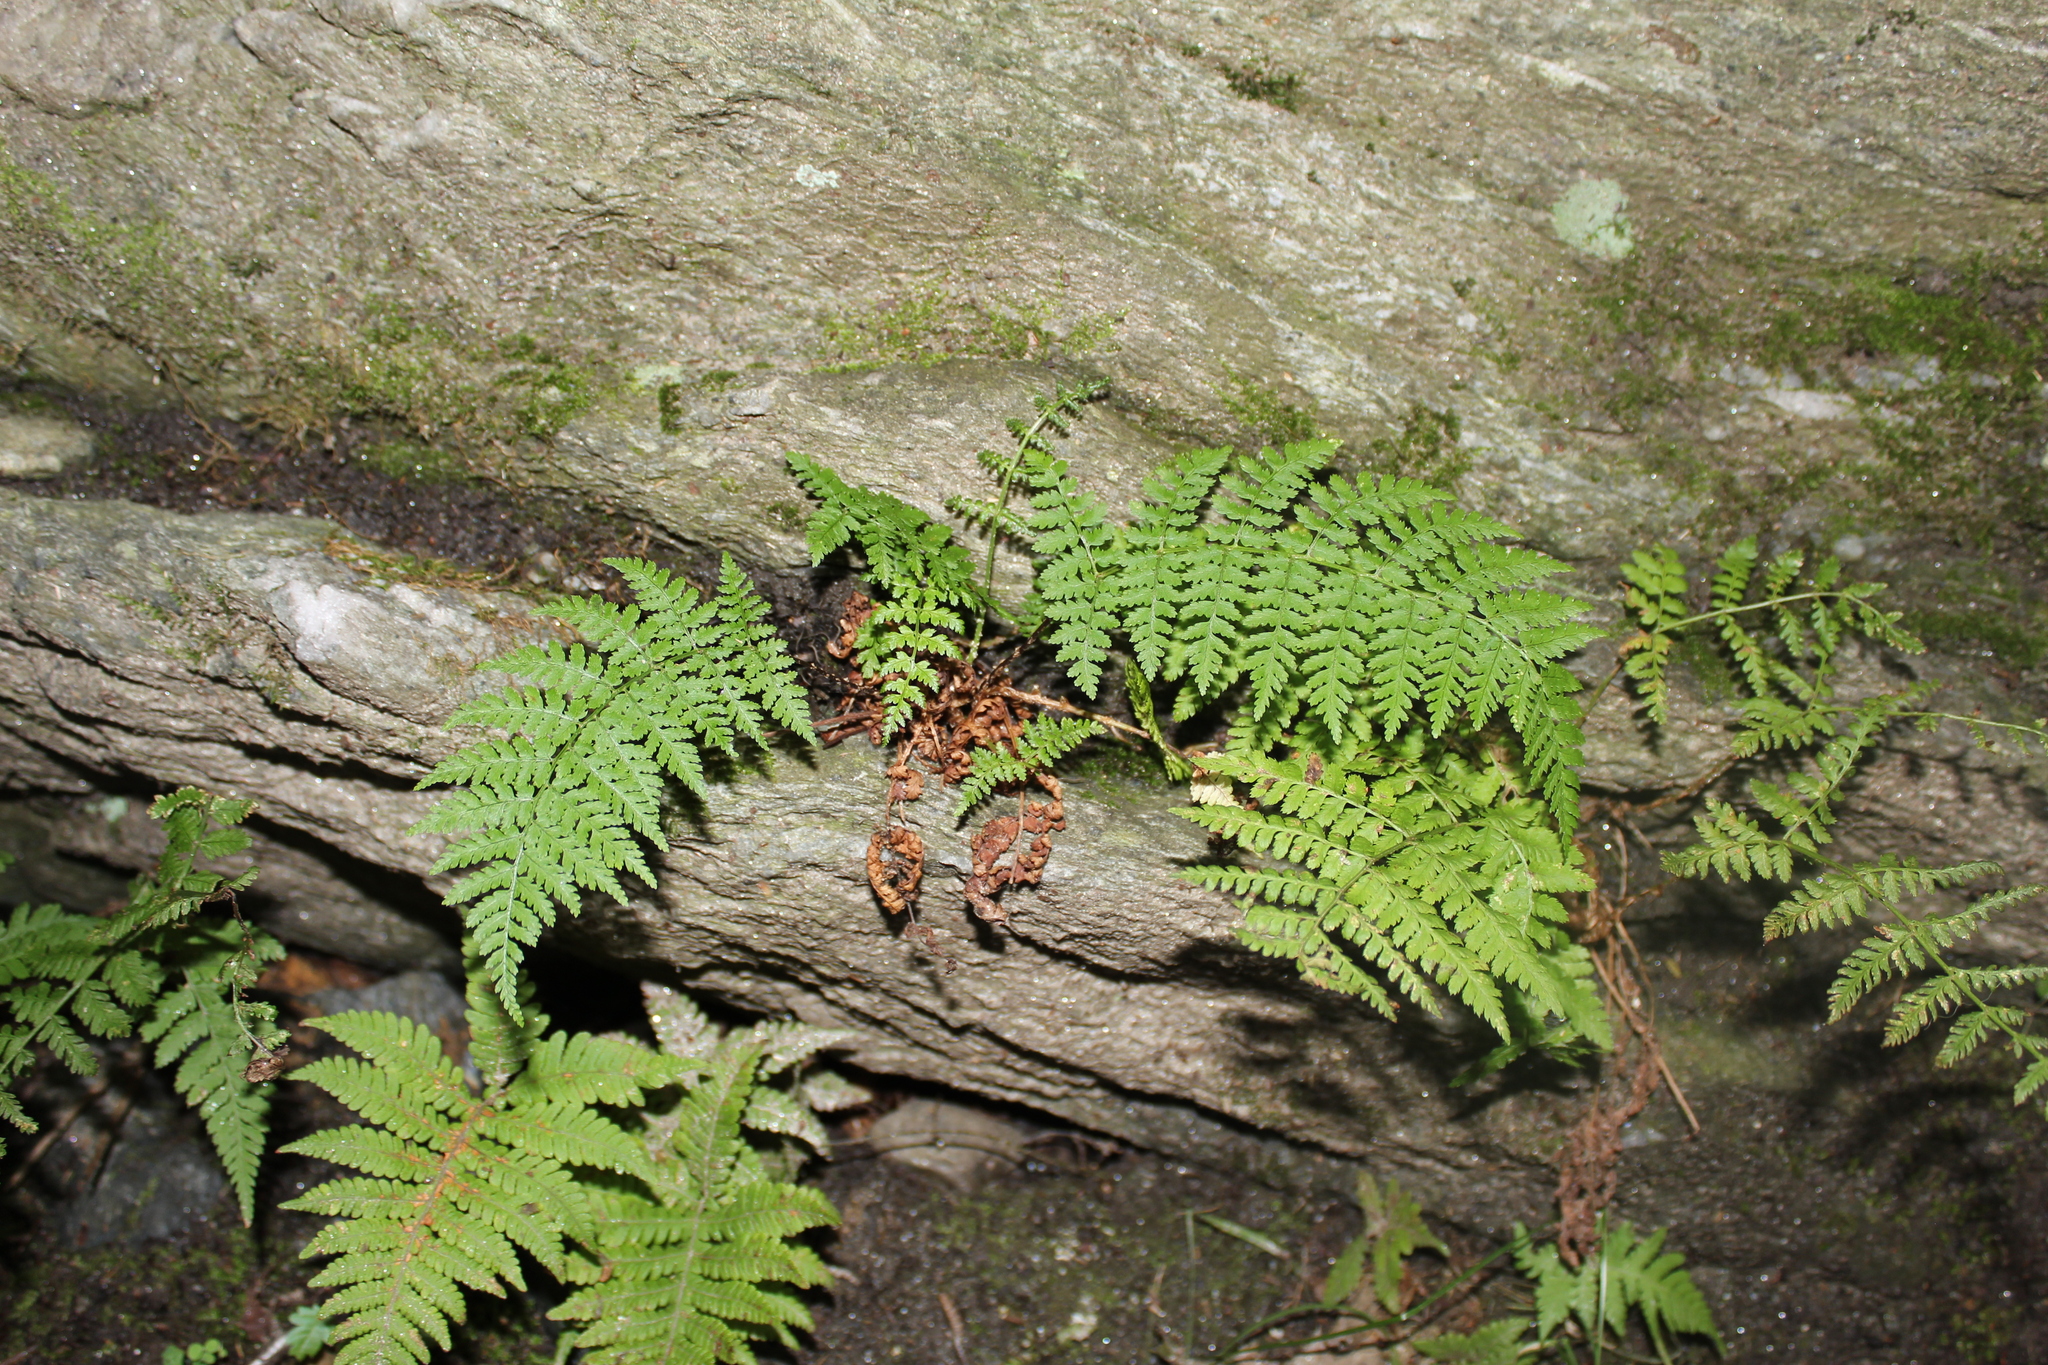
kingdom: Plantae
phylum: Tracheophyta
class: Polypodiopsida
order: Polypodiales
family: Dryopteridaceae
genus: Dryopteris
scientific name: Dryopteris intermedia
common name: Evergreen wood fern
